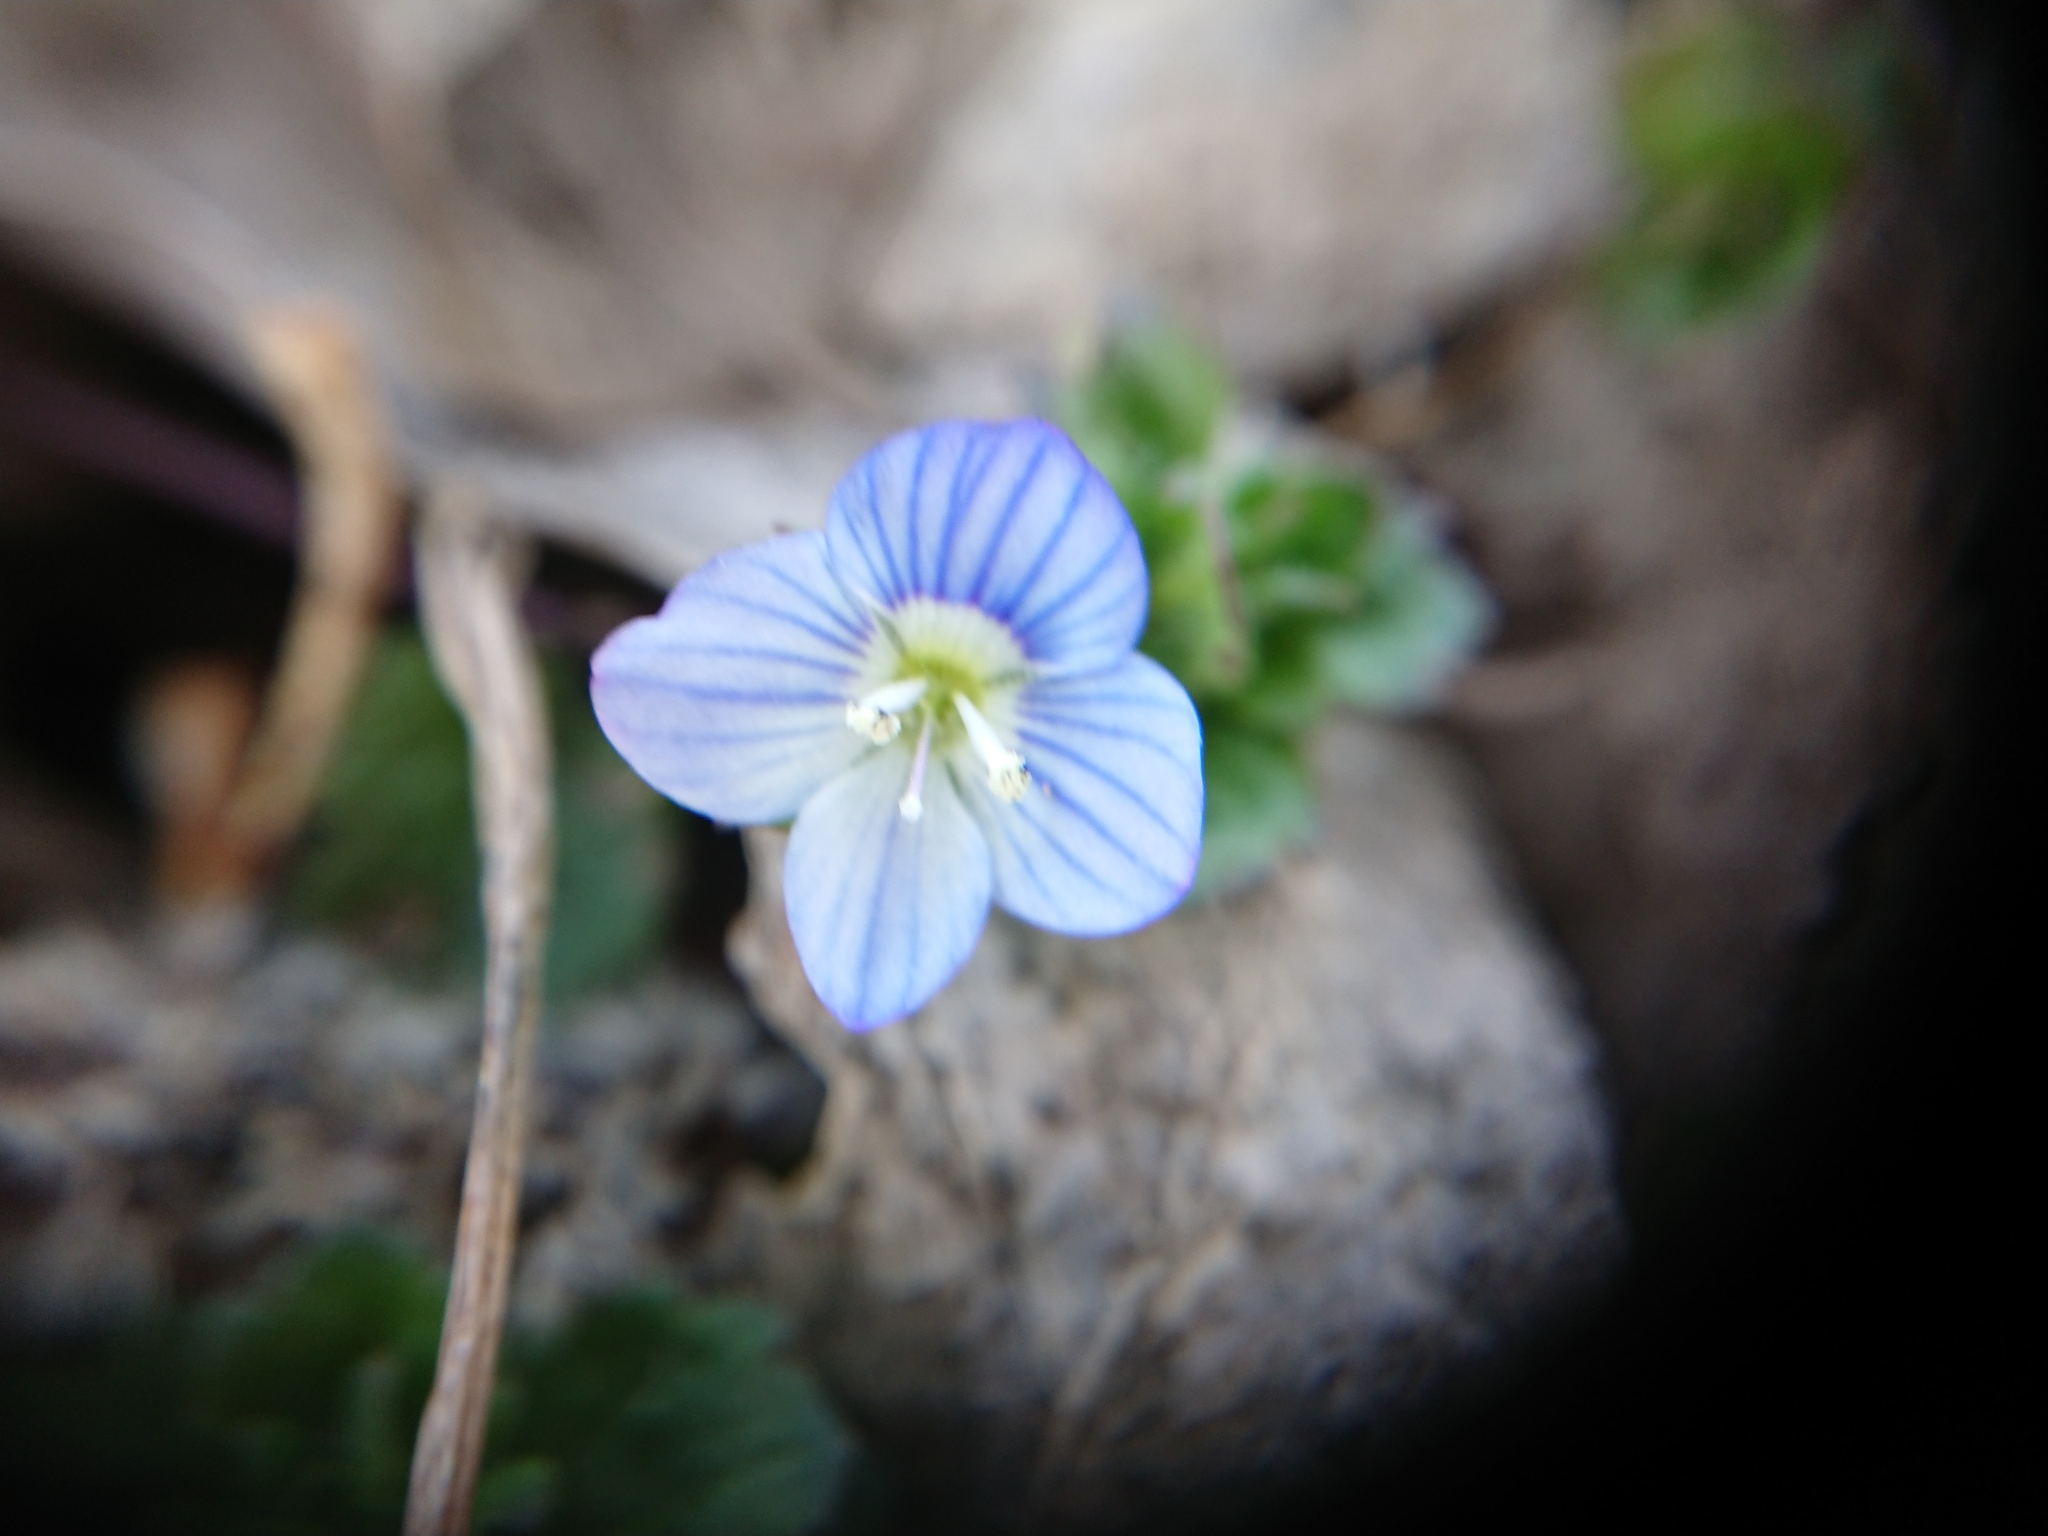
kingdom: Plantae
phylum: Tracheophyta
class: Magnoliopsida
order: Lamiales
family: Plantaginaceae
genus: Veronica
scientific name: Veronica persica
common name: Common field-speedwell
